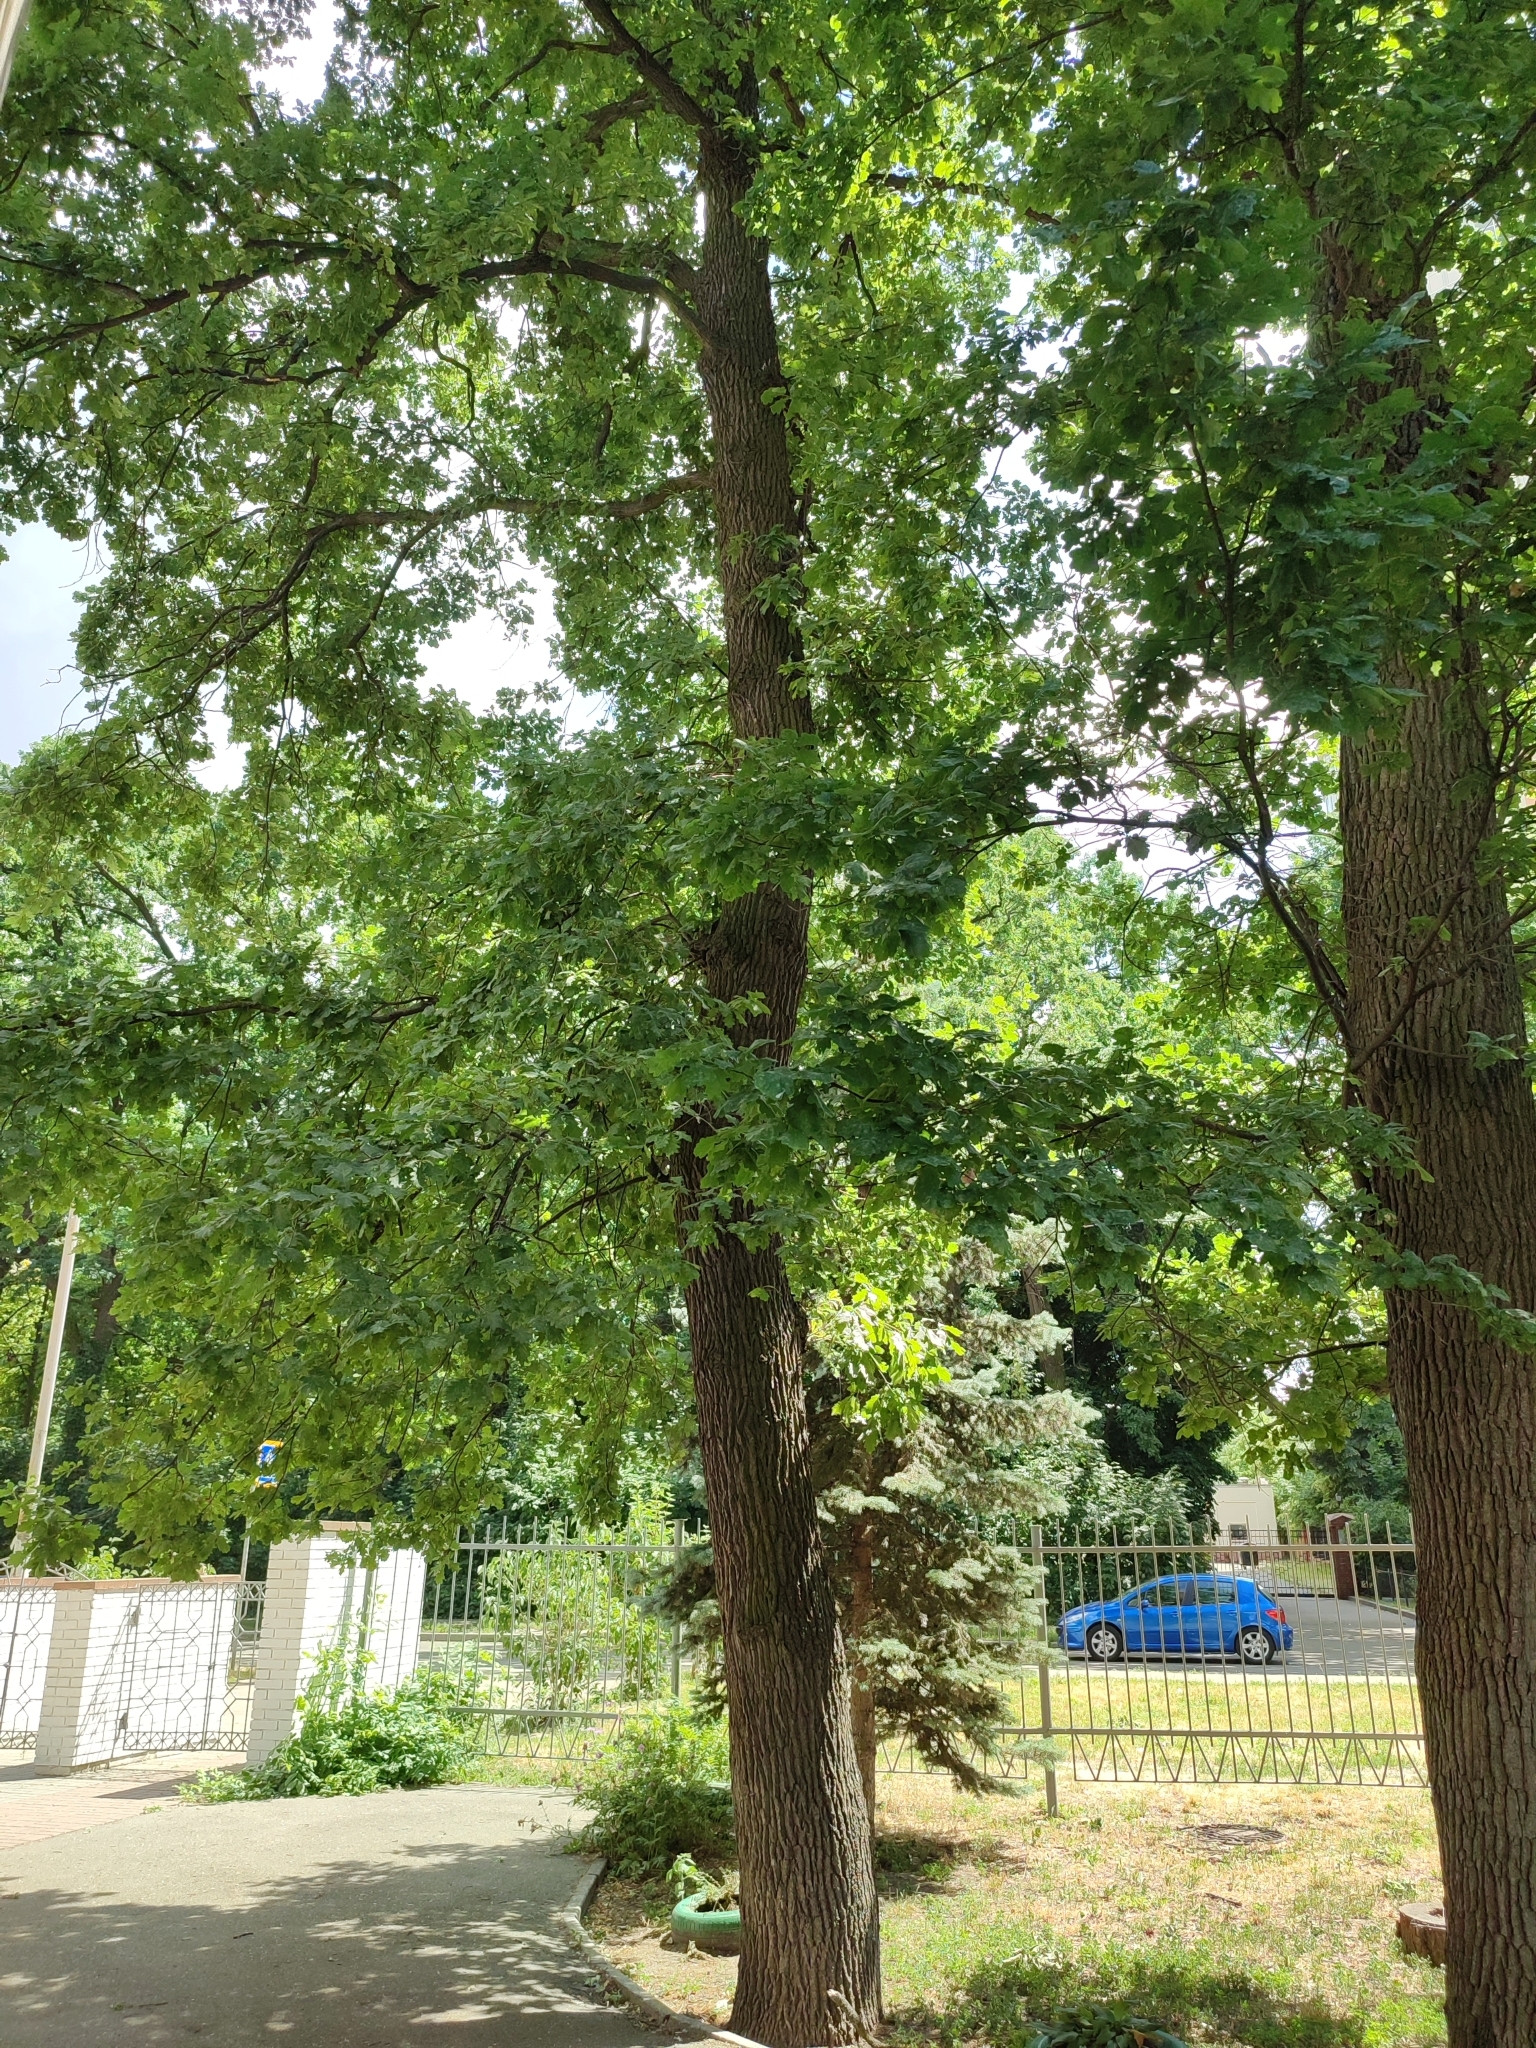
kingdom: Plantae
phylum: Tracheophyta
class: Magnoliopsida
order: Fagales
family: Fagaceae
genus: Quercus
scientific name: Quercus robur
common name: Pedunculate oak
